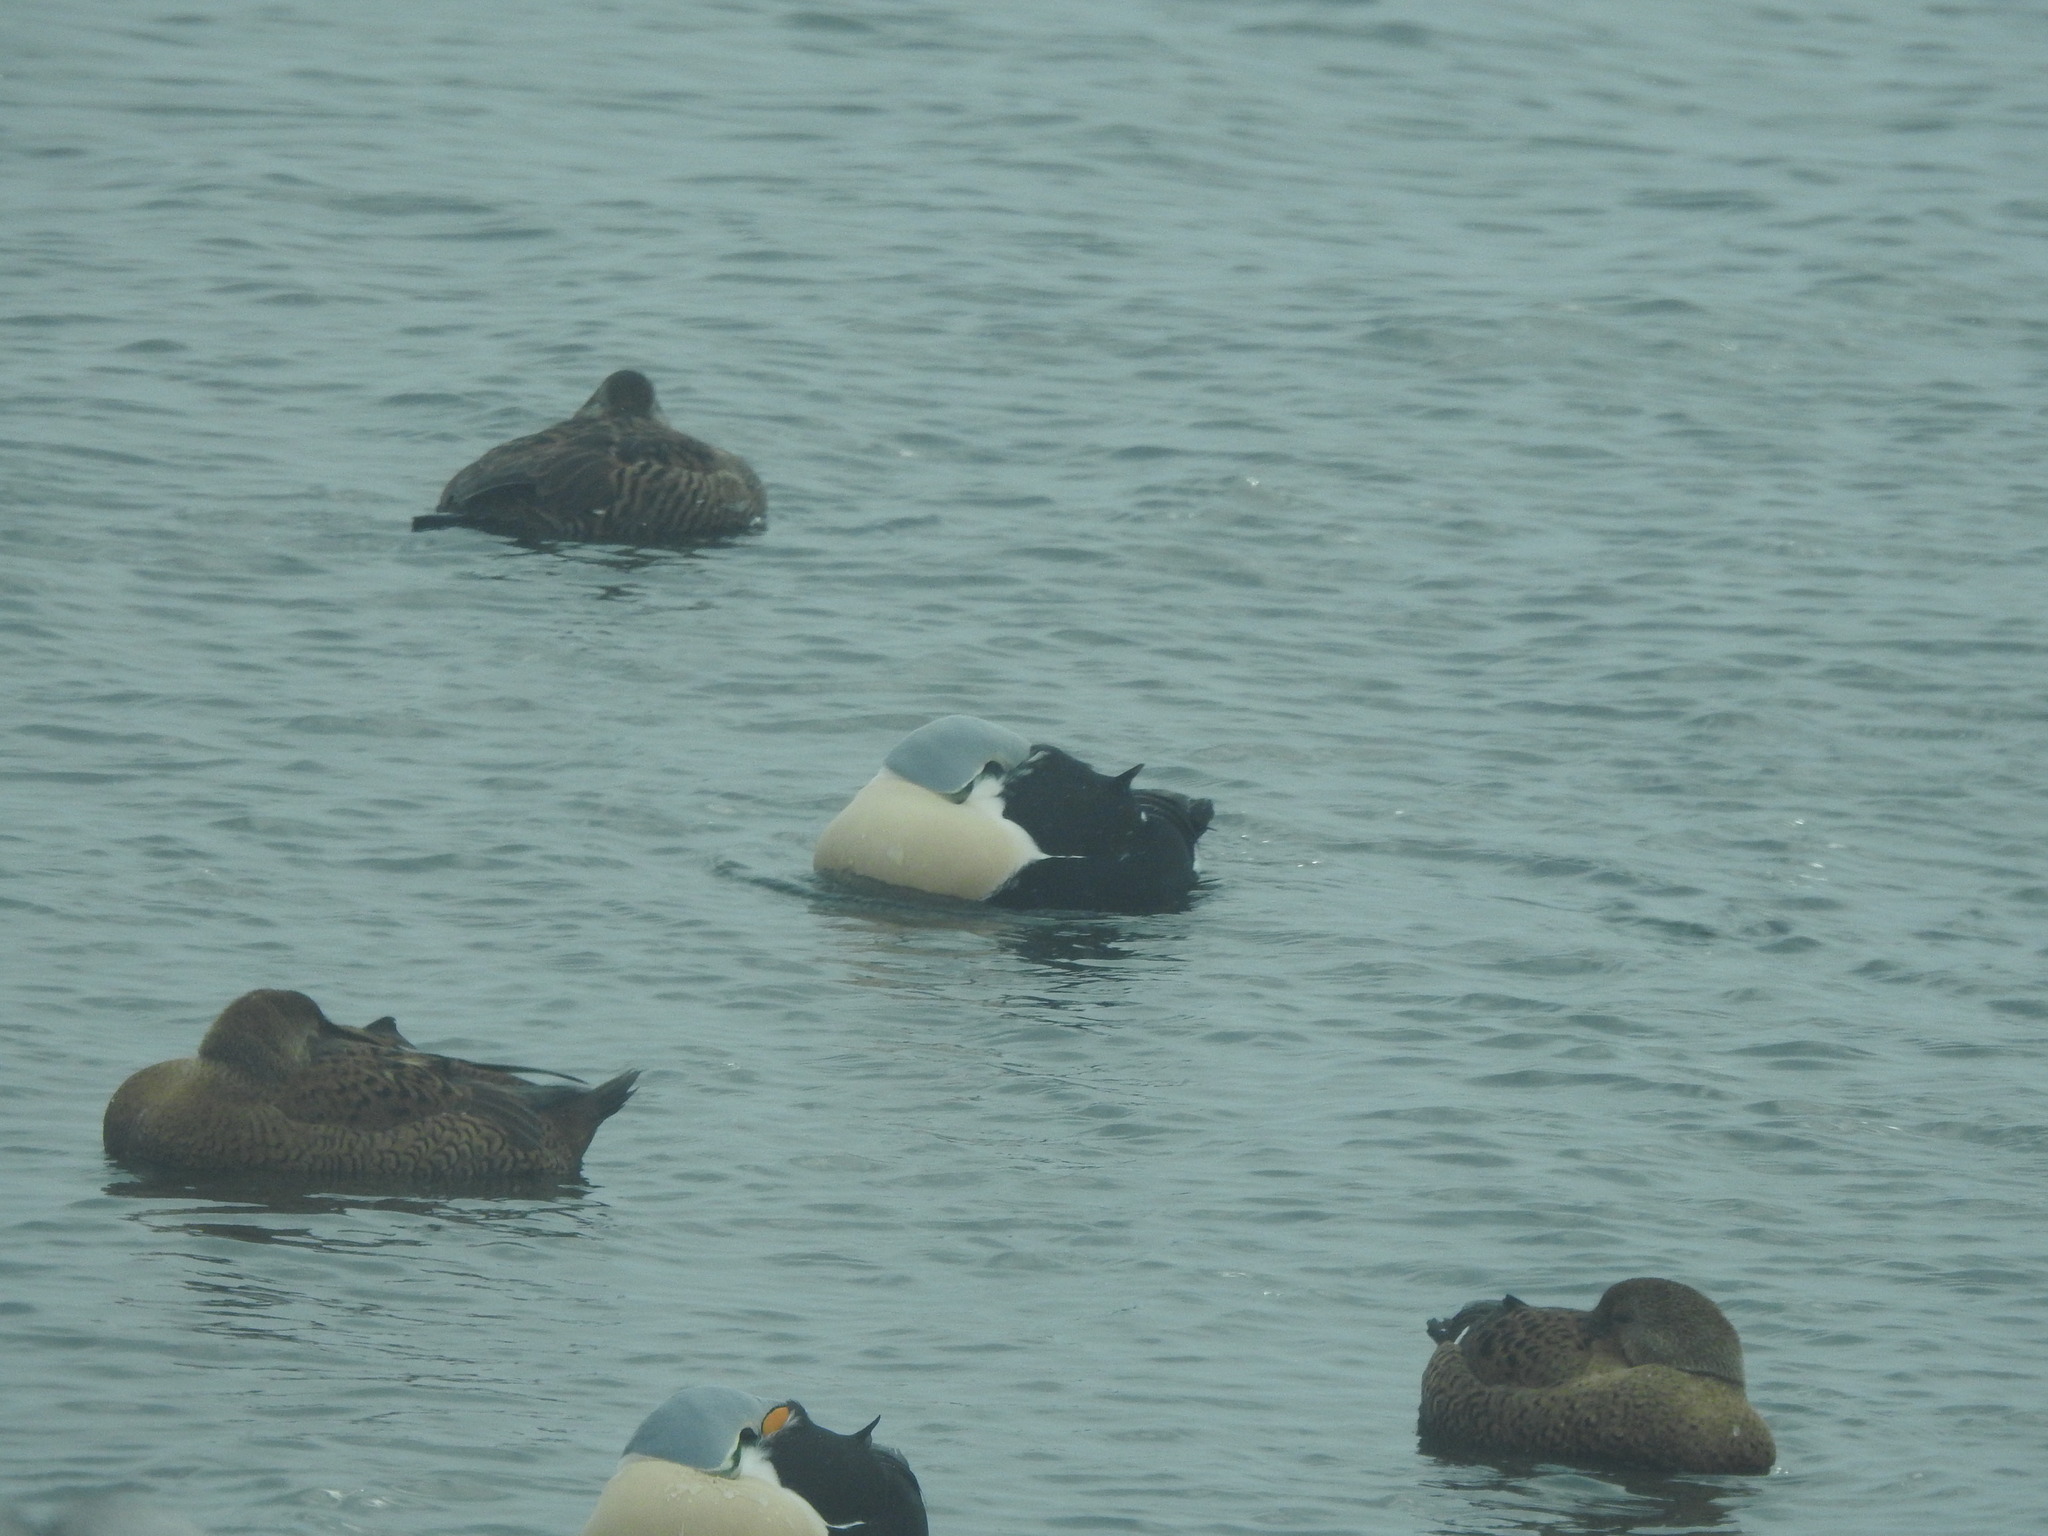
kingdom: Animalia
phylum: Chordata
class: Aves
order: Anseriformes
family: Anatidae
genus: Somateria
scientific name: Somateria spectabilis
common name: King eider
